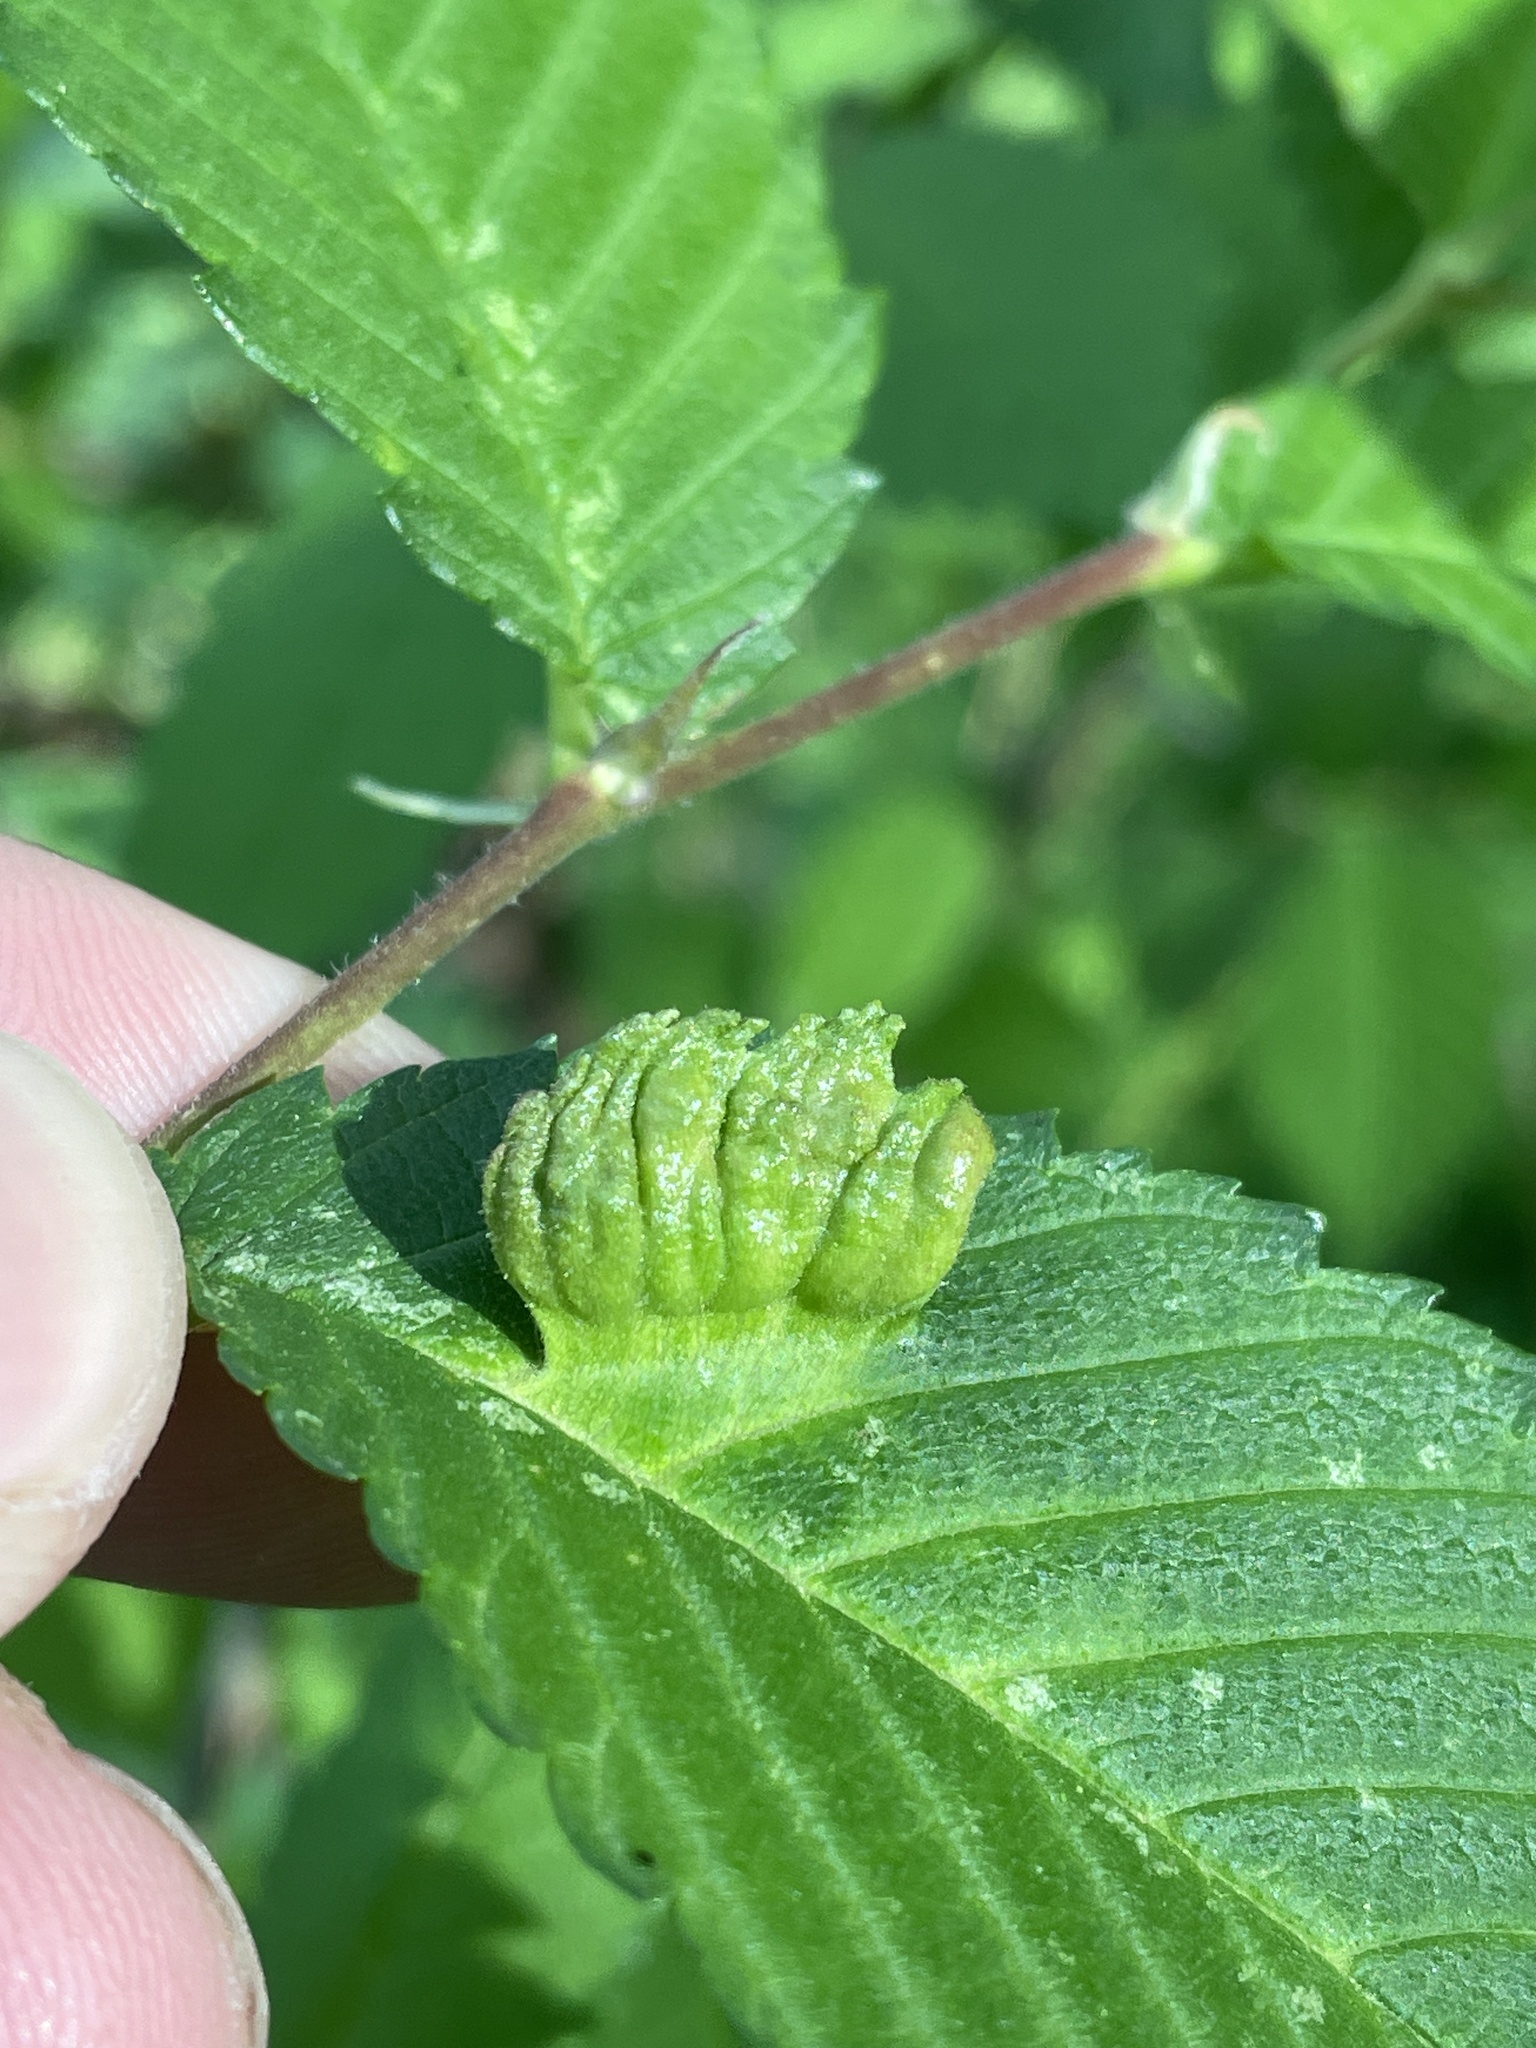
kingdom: Animalia
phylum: Arthropoda
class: Insecta
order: Hemiptera
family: Aphididae
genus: Colopha
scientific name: Colopha ulmicola
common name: Elm cockscombgall aphid
